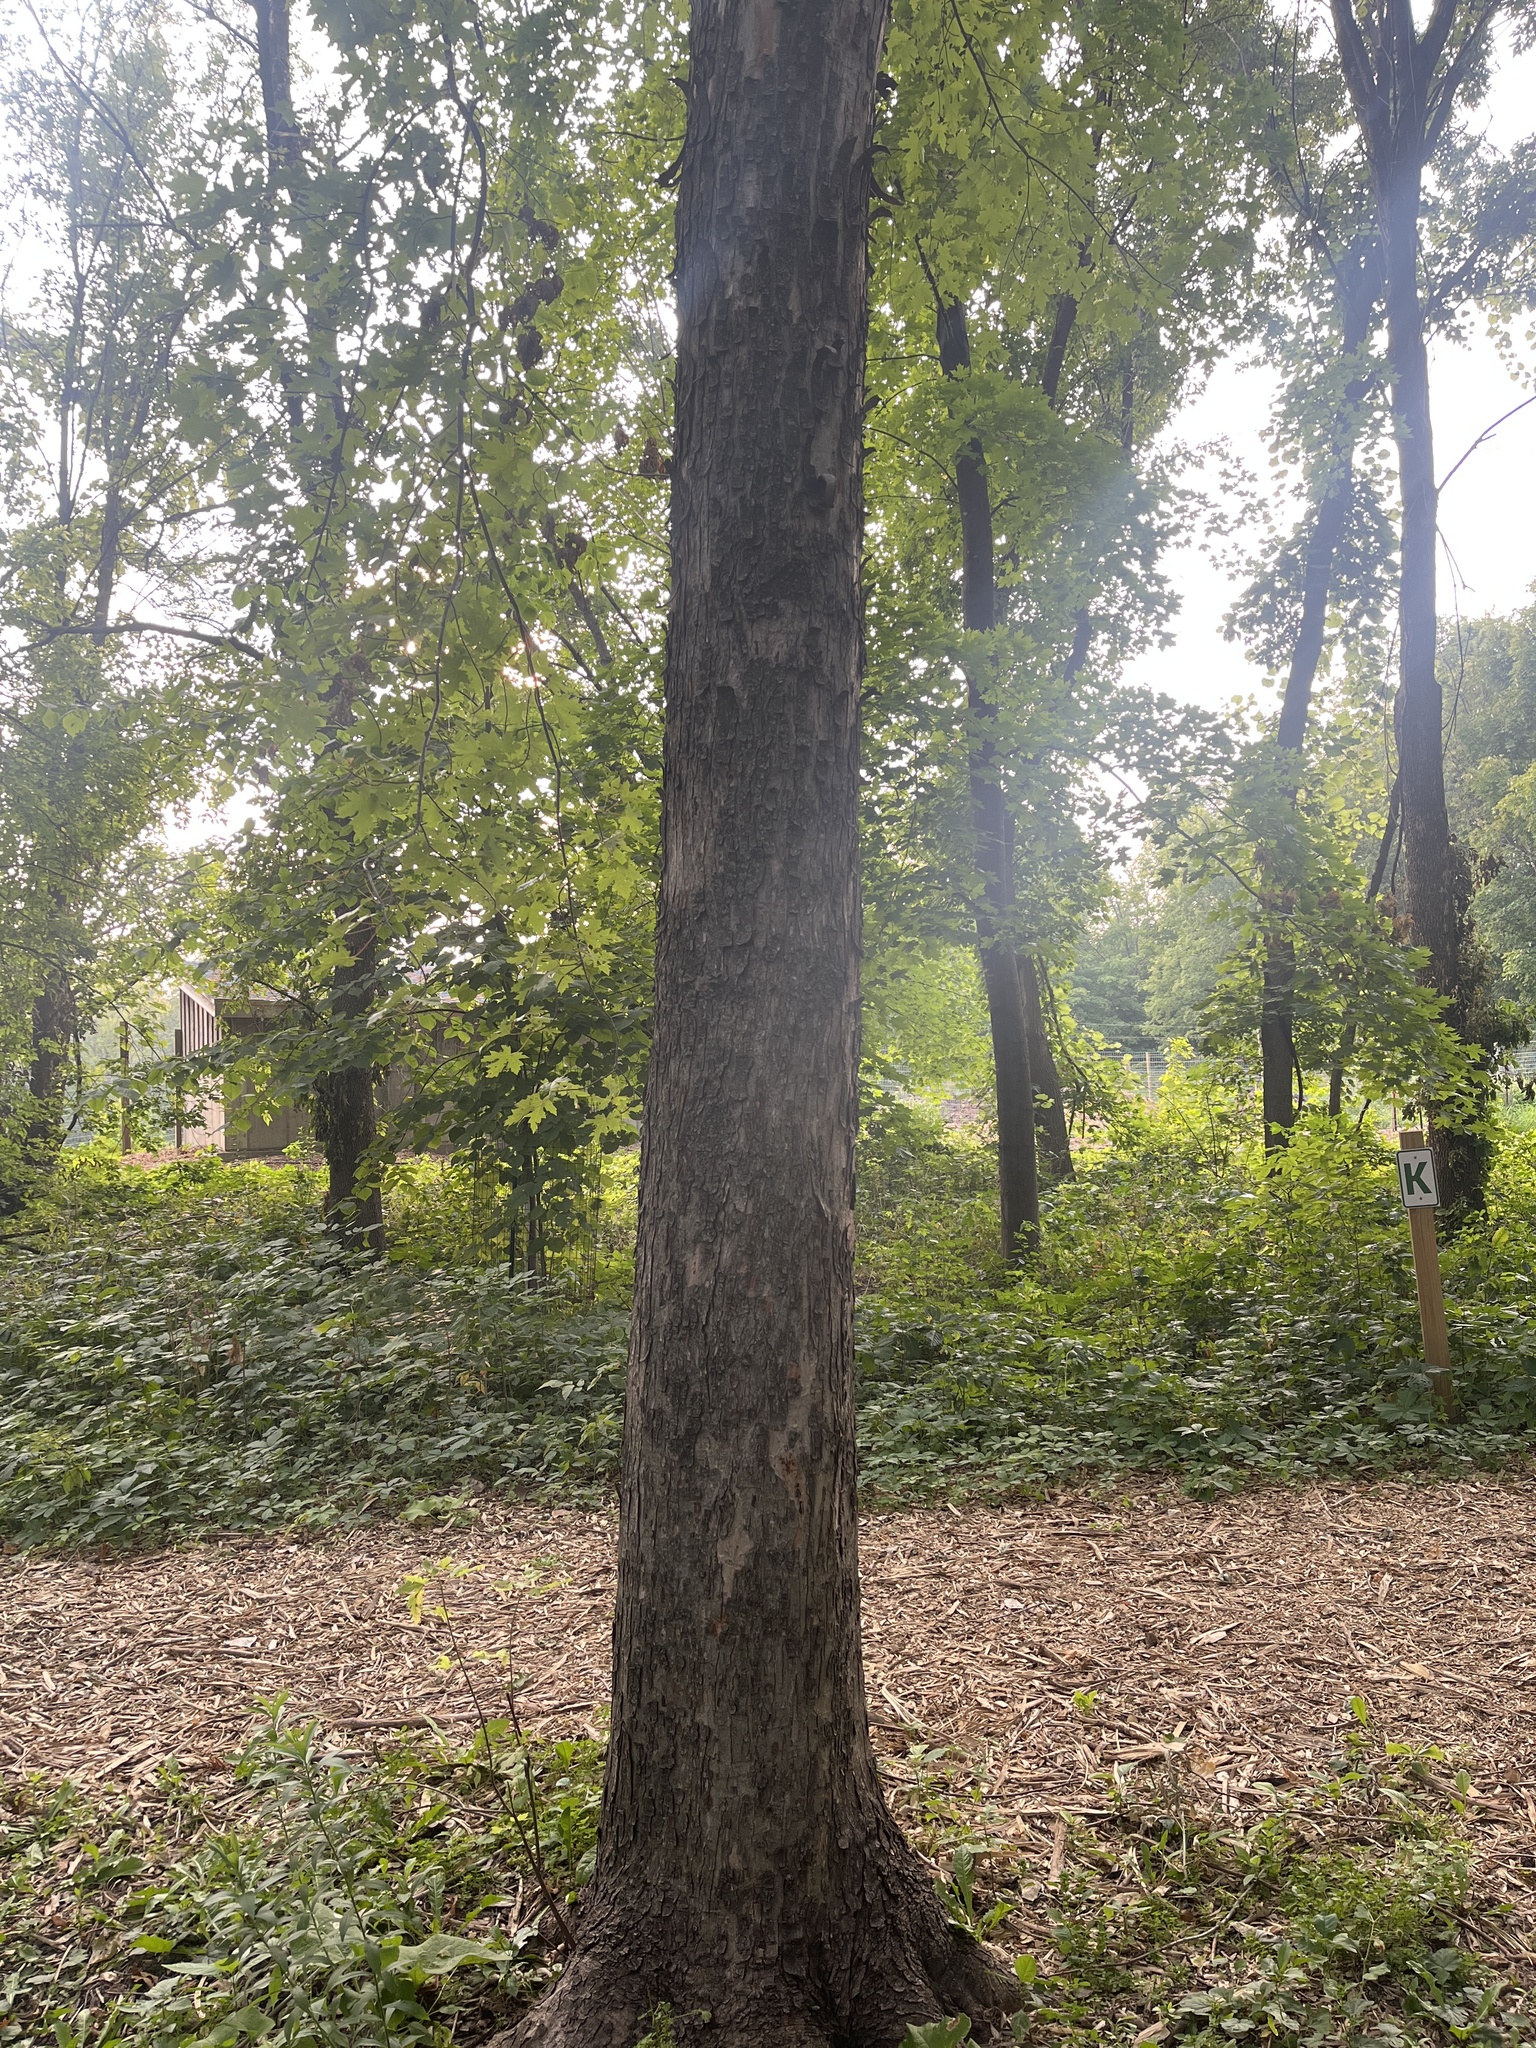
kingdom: Plantae
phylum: Tracheophyta
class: Magnoliopsida
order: Sapindales
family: Sapindaceae
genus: Acer
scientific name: Acer saccharinum
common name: Silver maple
